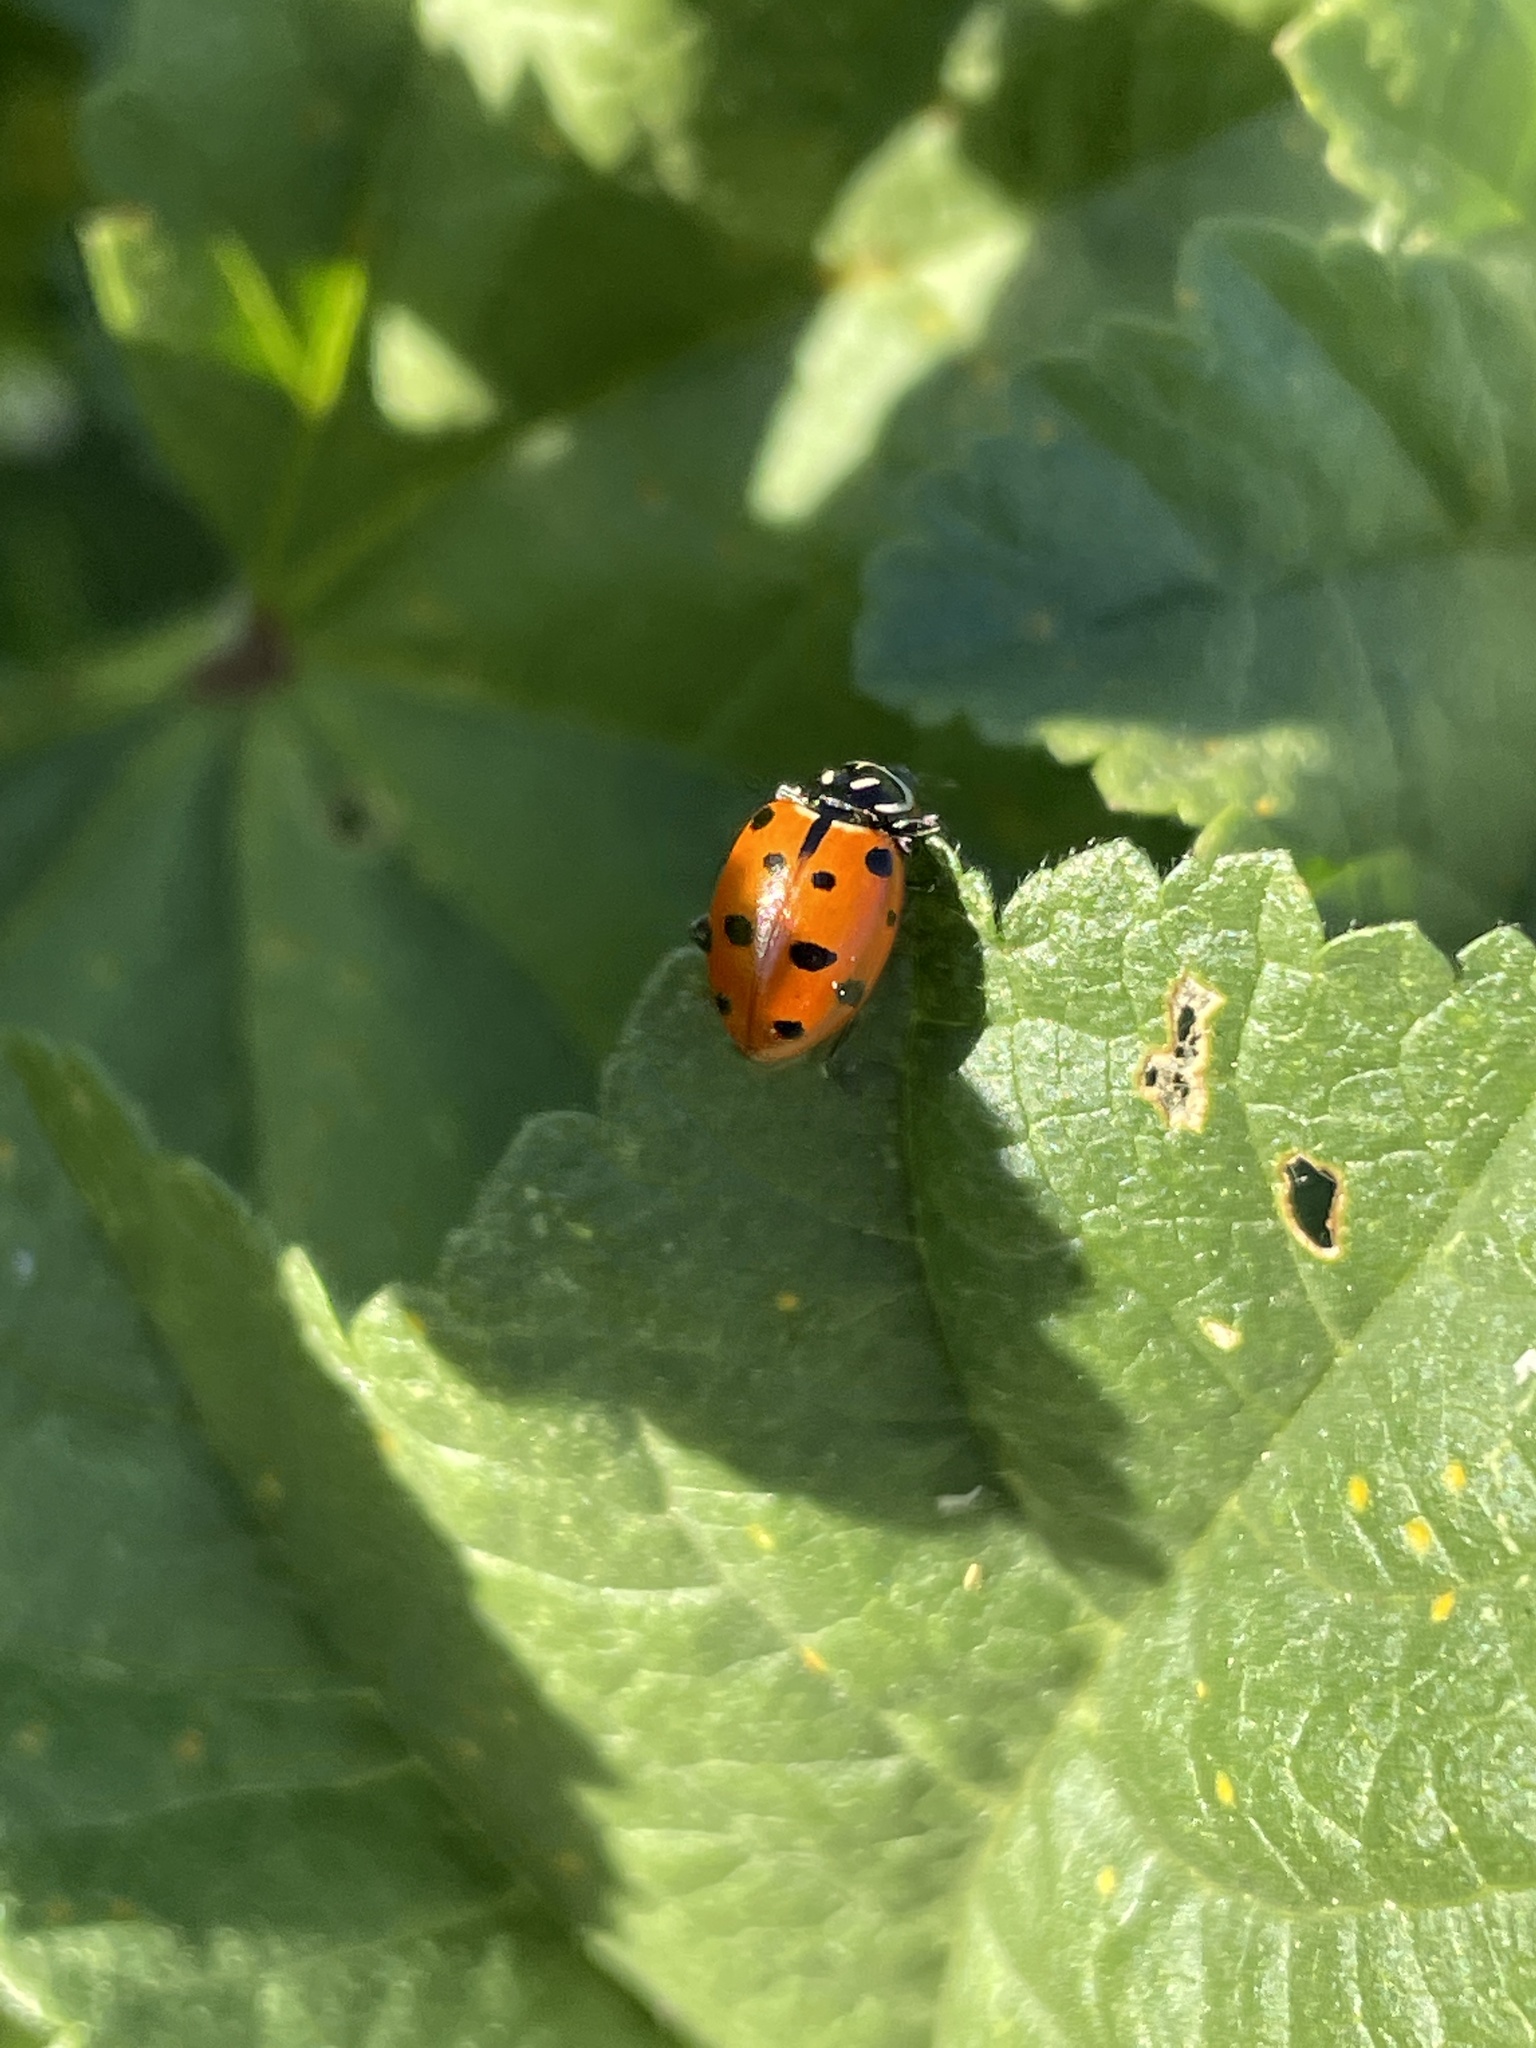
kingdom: Animalia
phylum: Arthropoda
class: Insecta
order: Coleoptera
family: Coccinellidae
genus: Hippodamia
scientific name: Hippodamia convergens
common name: Convergent lady beetle
